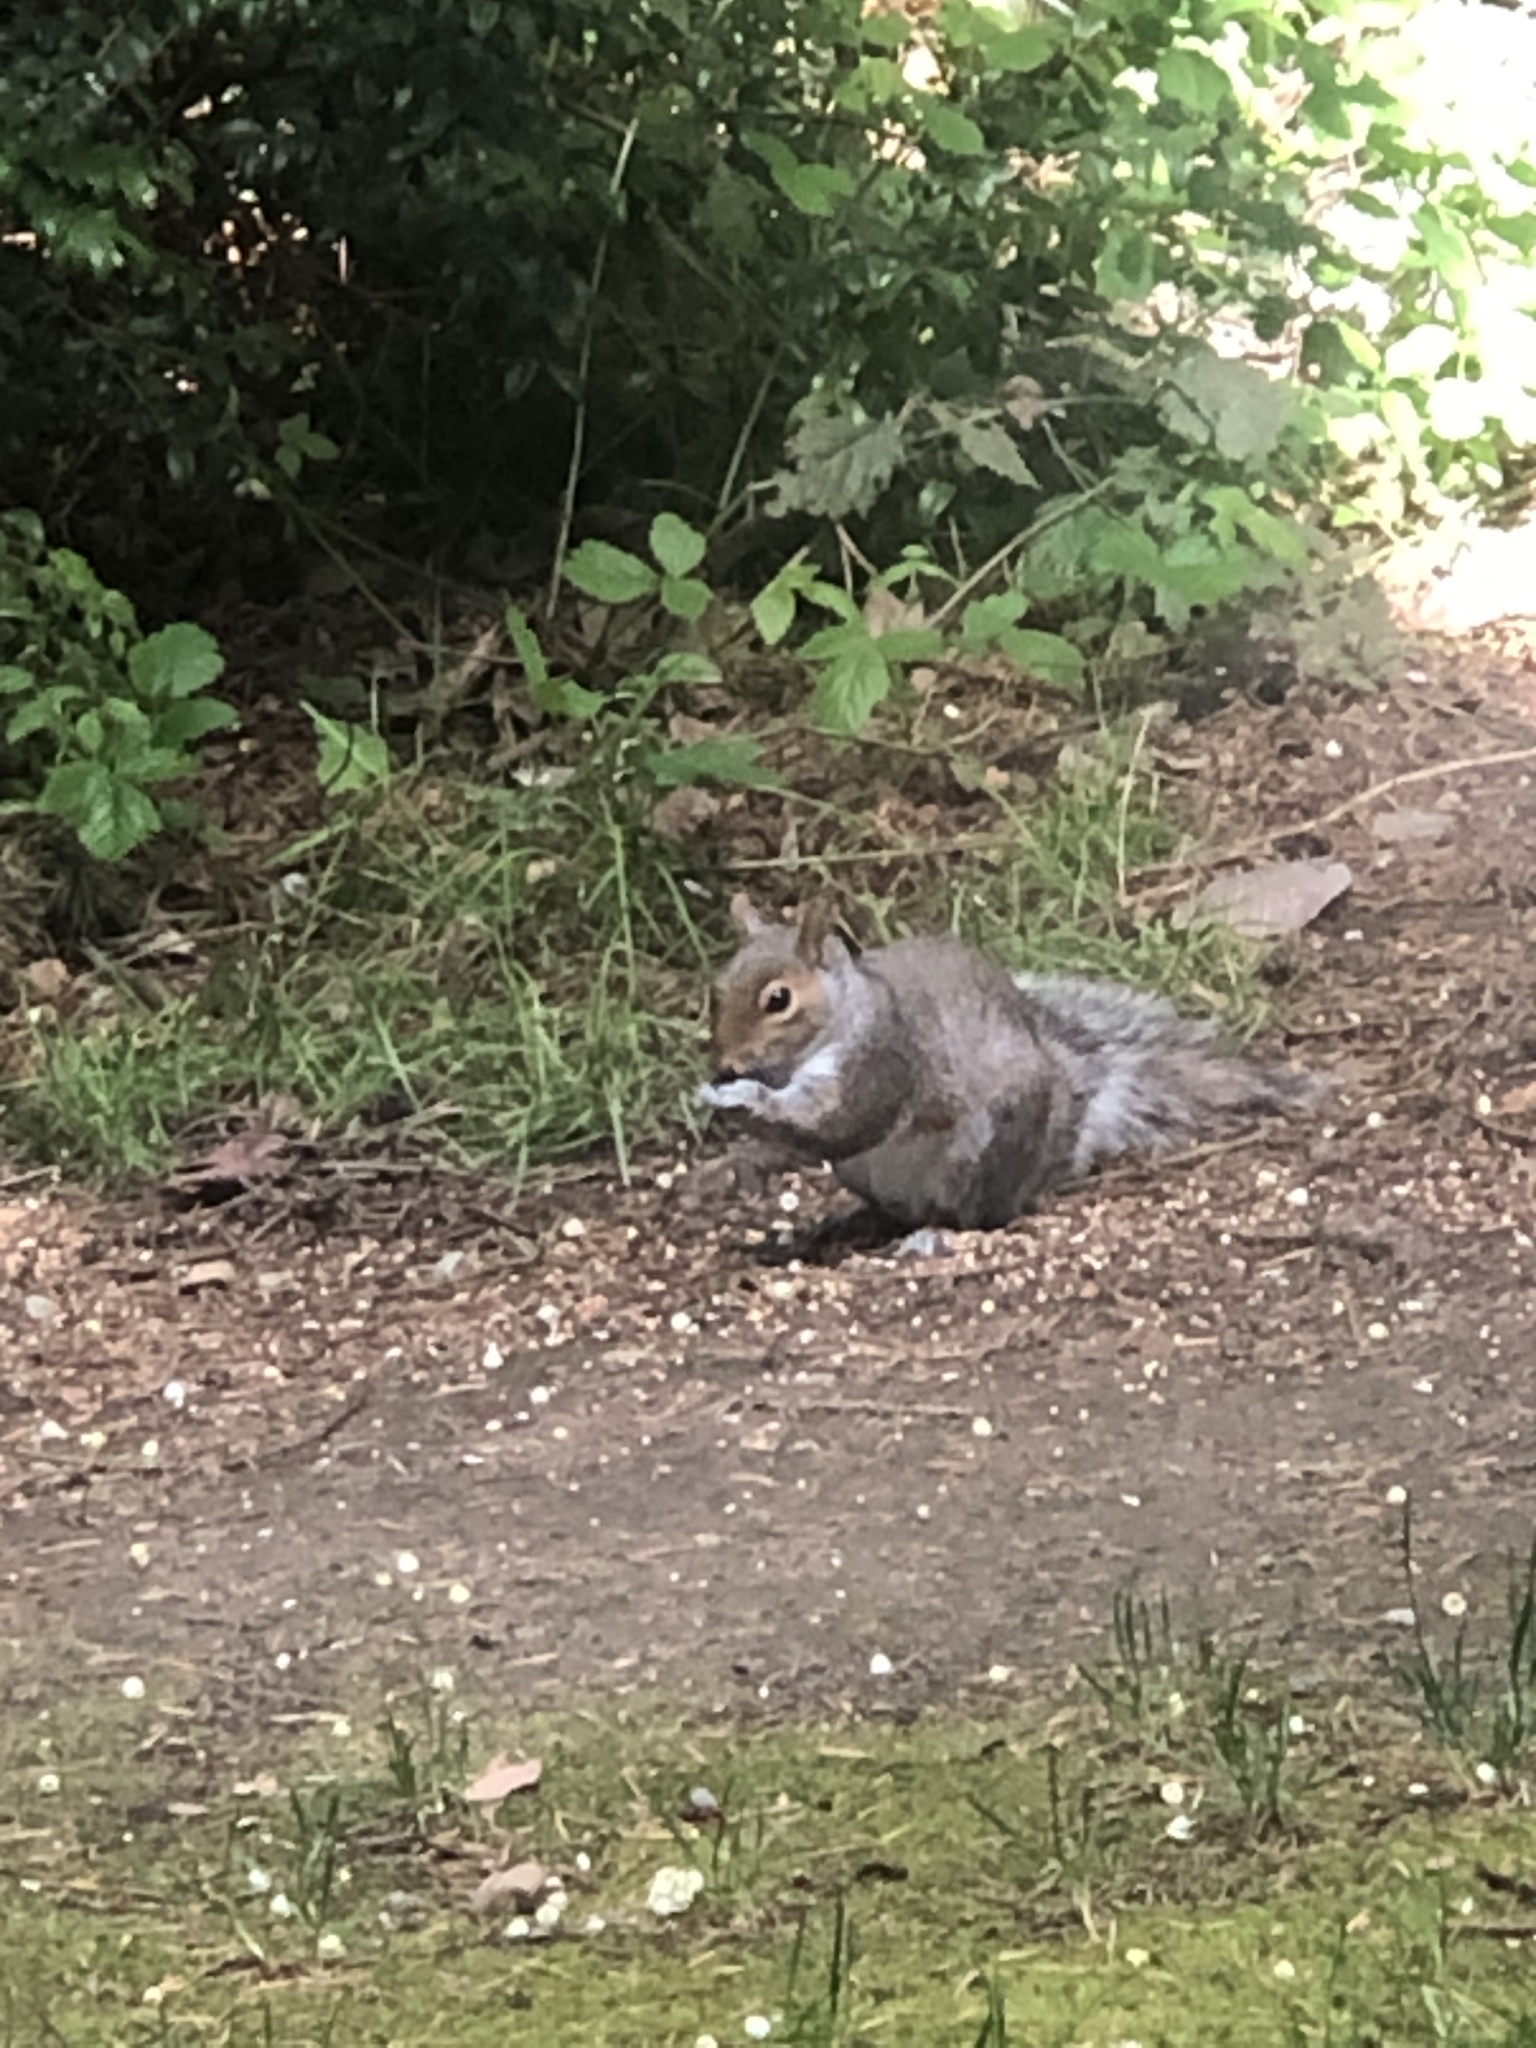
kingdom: Animalia
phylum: Chordata
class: Mammalia
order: Rodentia
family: Sciuridae
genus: Sciurus
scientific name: Sciurus carolinensis
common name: Eastern gray squirrel
